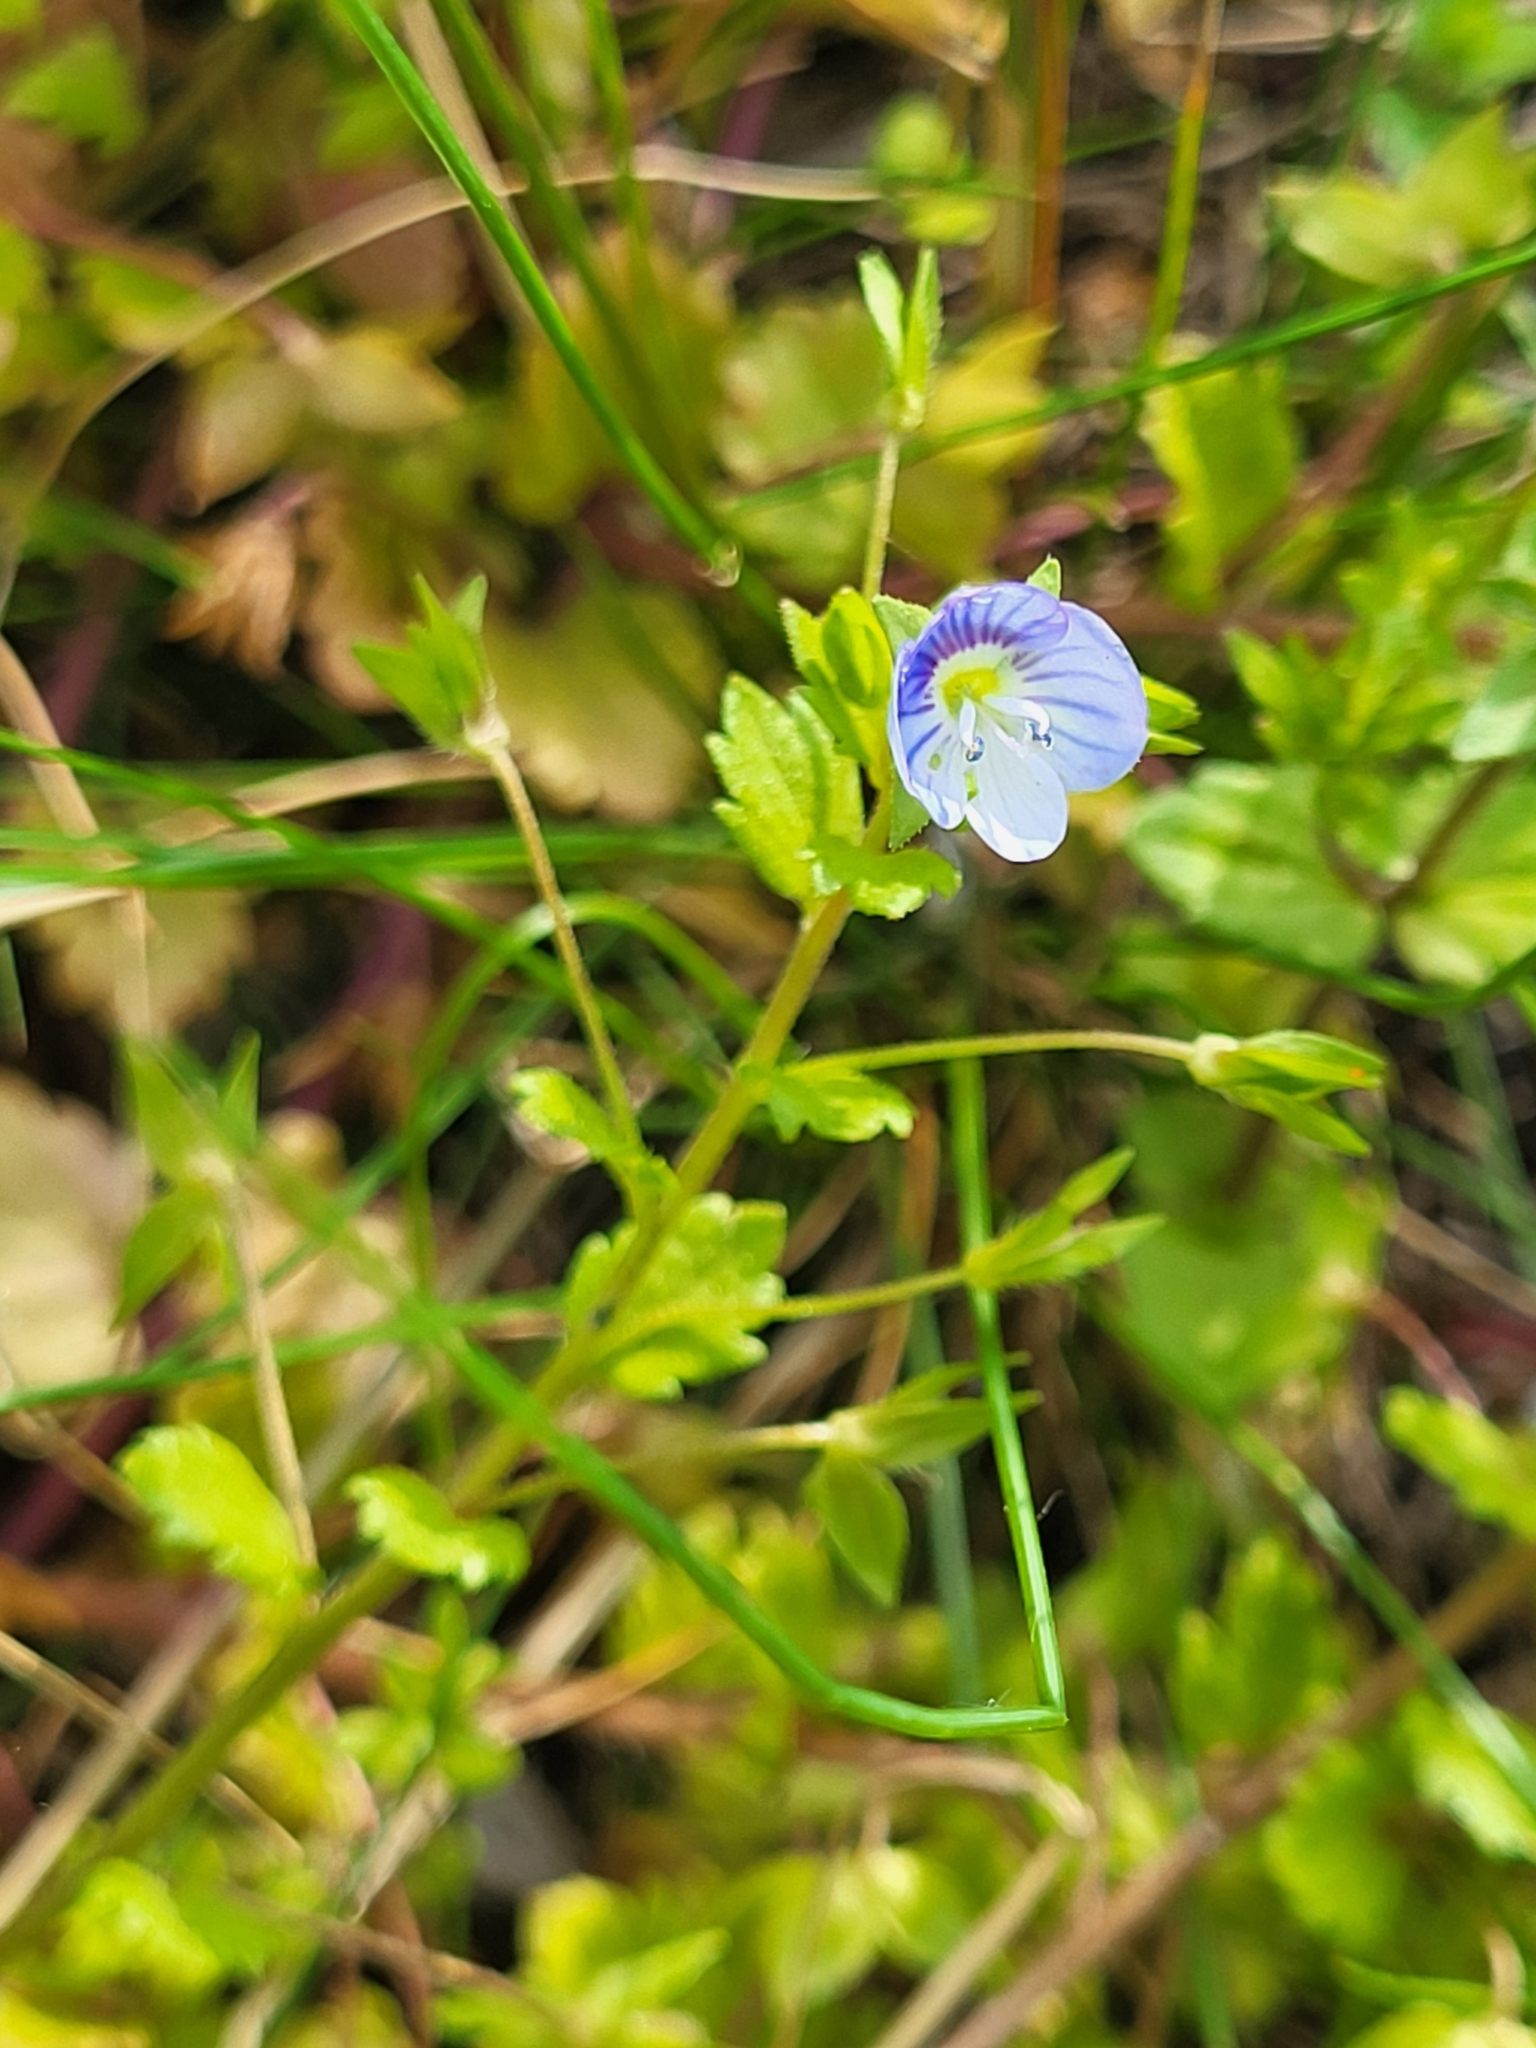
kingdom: Plantae
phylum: Tracheophyta
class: Magnoliopsida
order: Lamiales
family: Plantaginaceae
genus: Veronica
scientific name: Veronica persica
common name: Common field-speedwell
